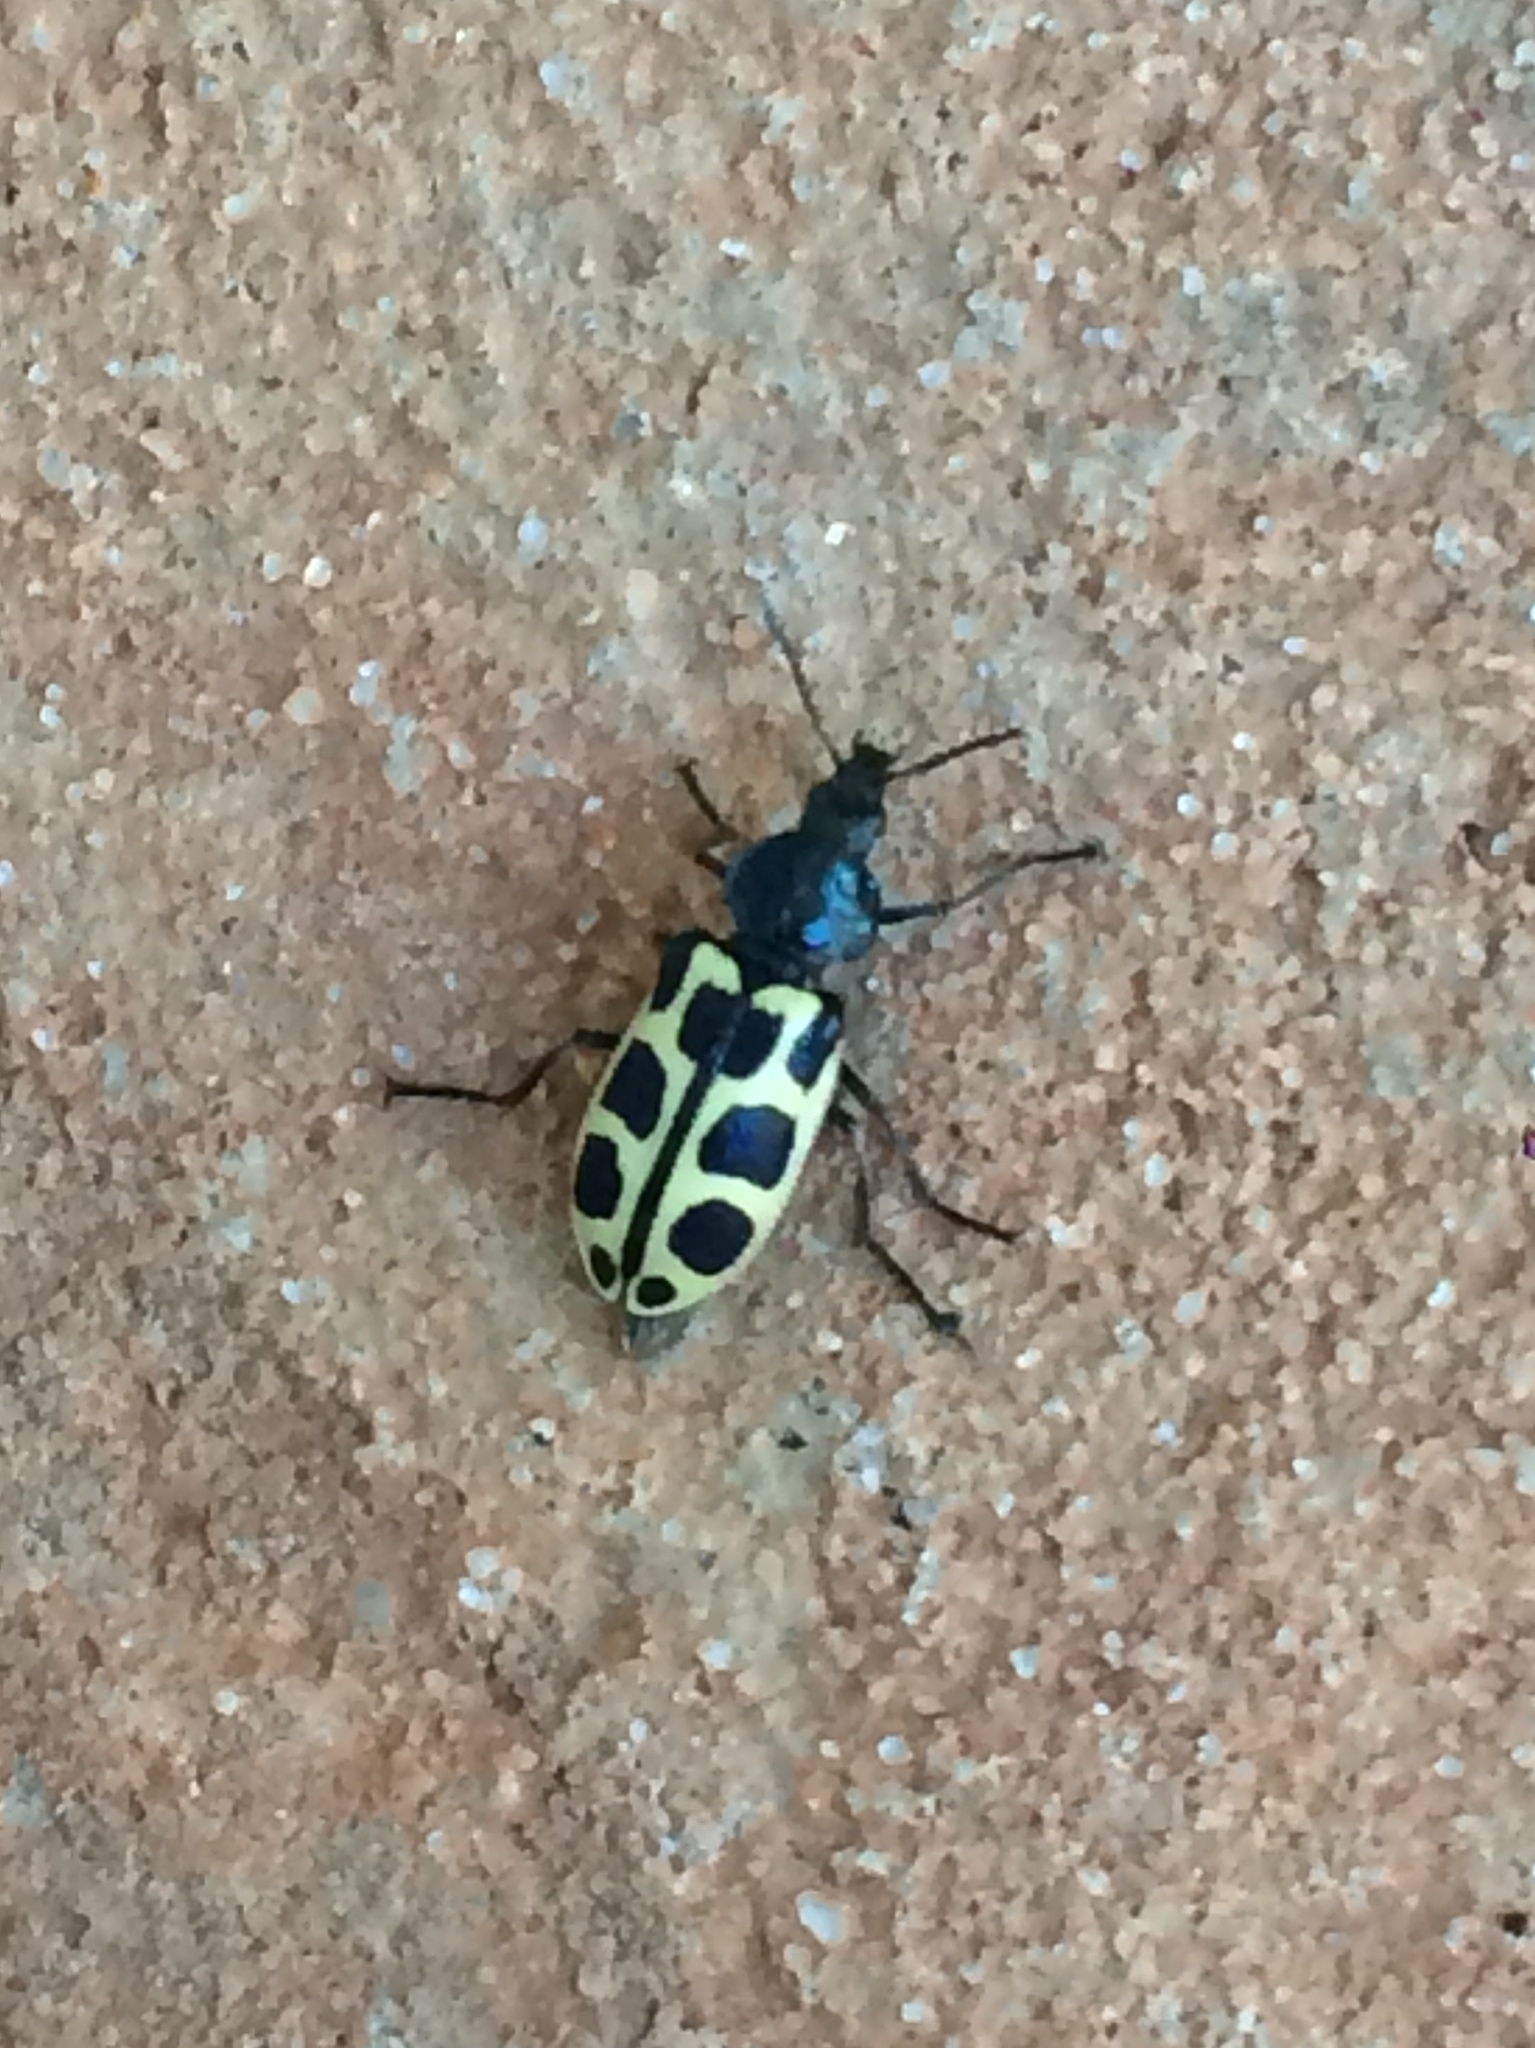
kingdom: Animalia
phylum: Arthropoda
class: Insecta
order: Coleoptera
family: Melyridae
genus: Astylus
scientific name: Astylus
